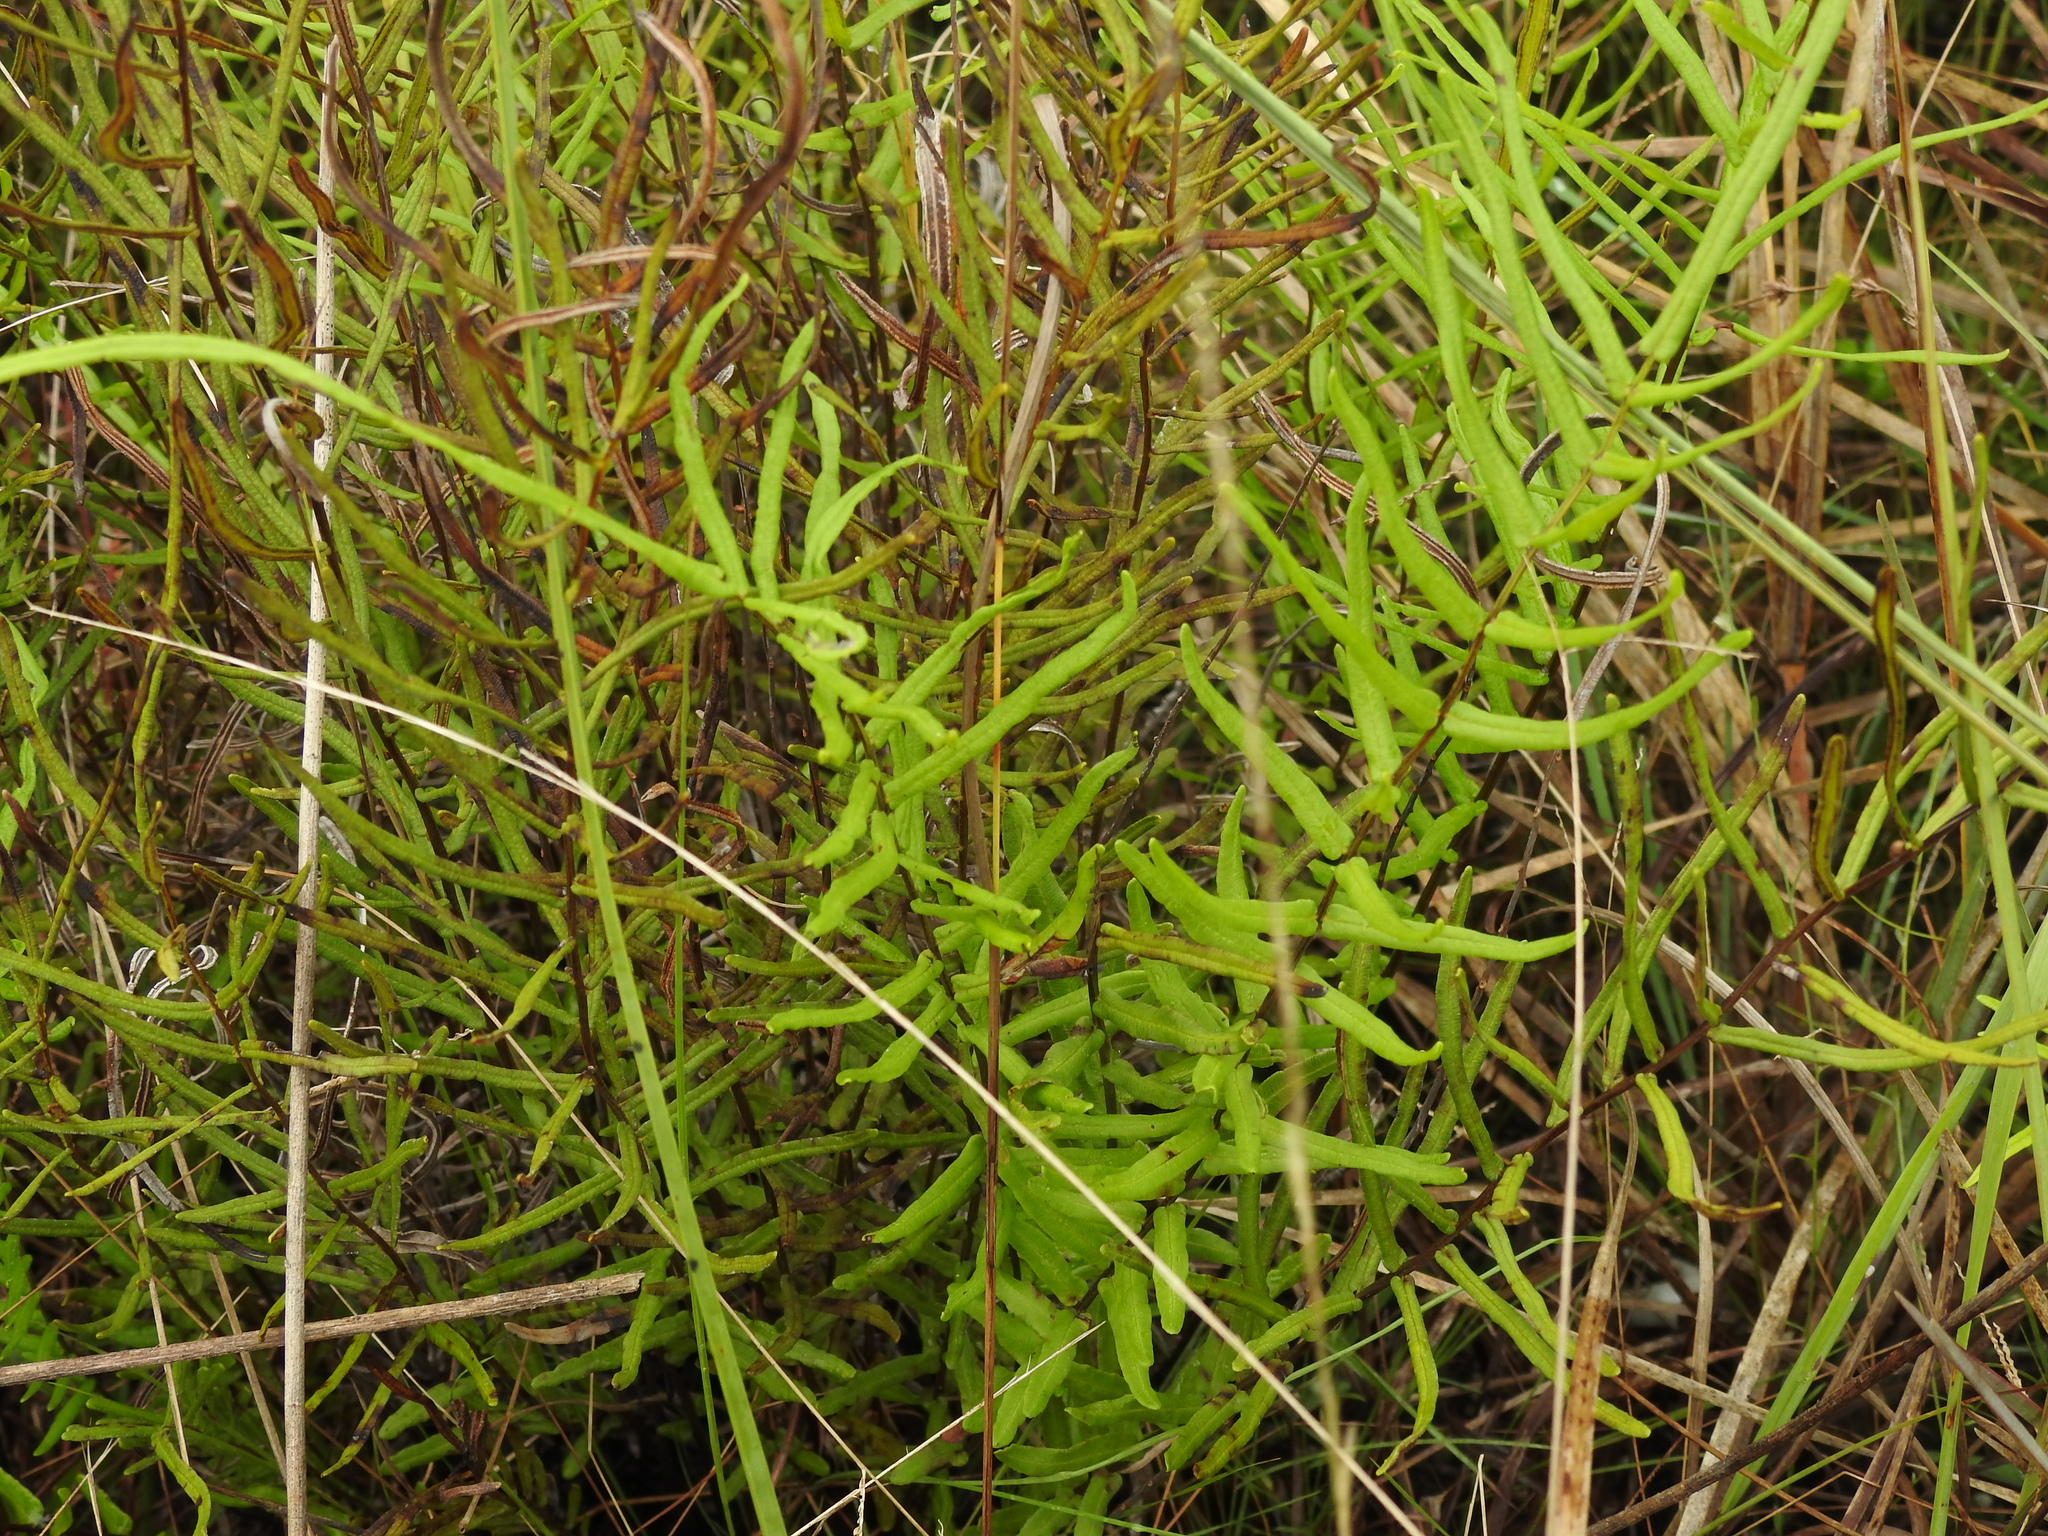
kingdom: Plantae
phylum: Tracheophyta
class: Polypodiopsida
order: Polypodiales
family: Pteridaceae
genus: Pteris
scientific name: Pteris bahamensis
